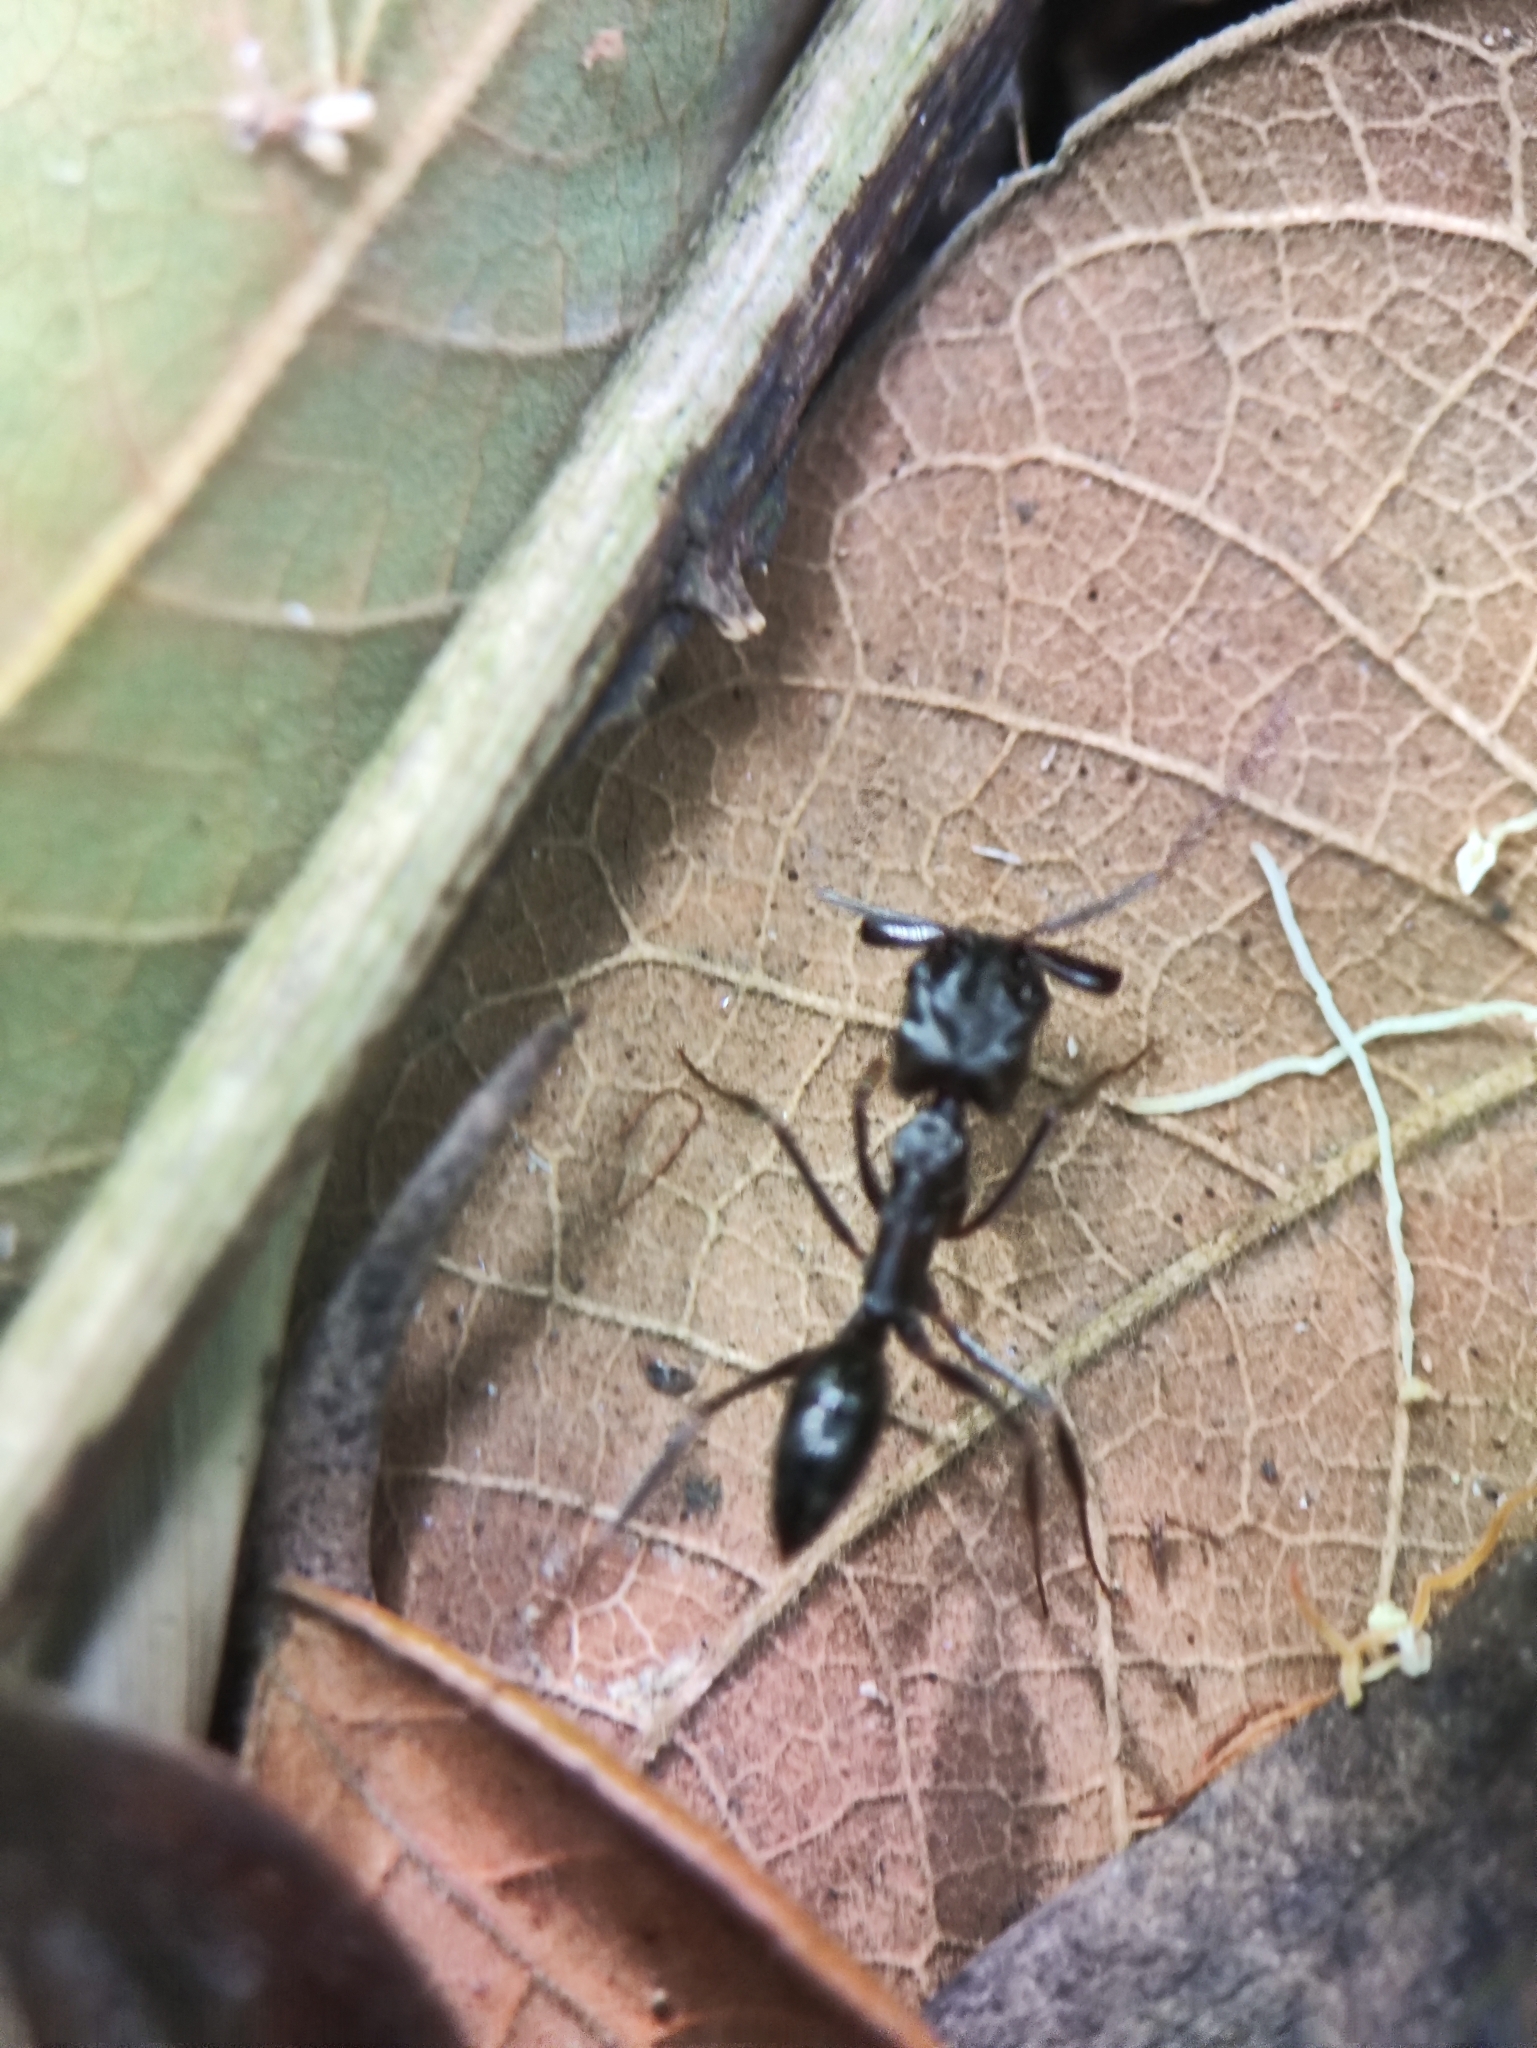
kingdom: Animalia
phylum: Arthropoda
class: Insecta
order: Hymenoptera
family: Formicidae
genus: Odontomachus
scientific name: Odontomachus simillimus
